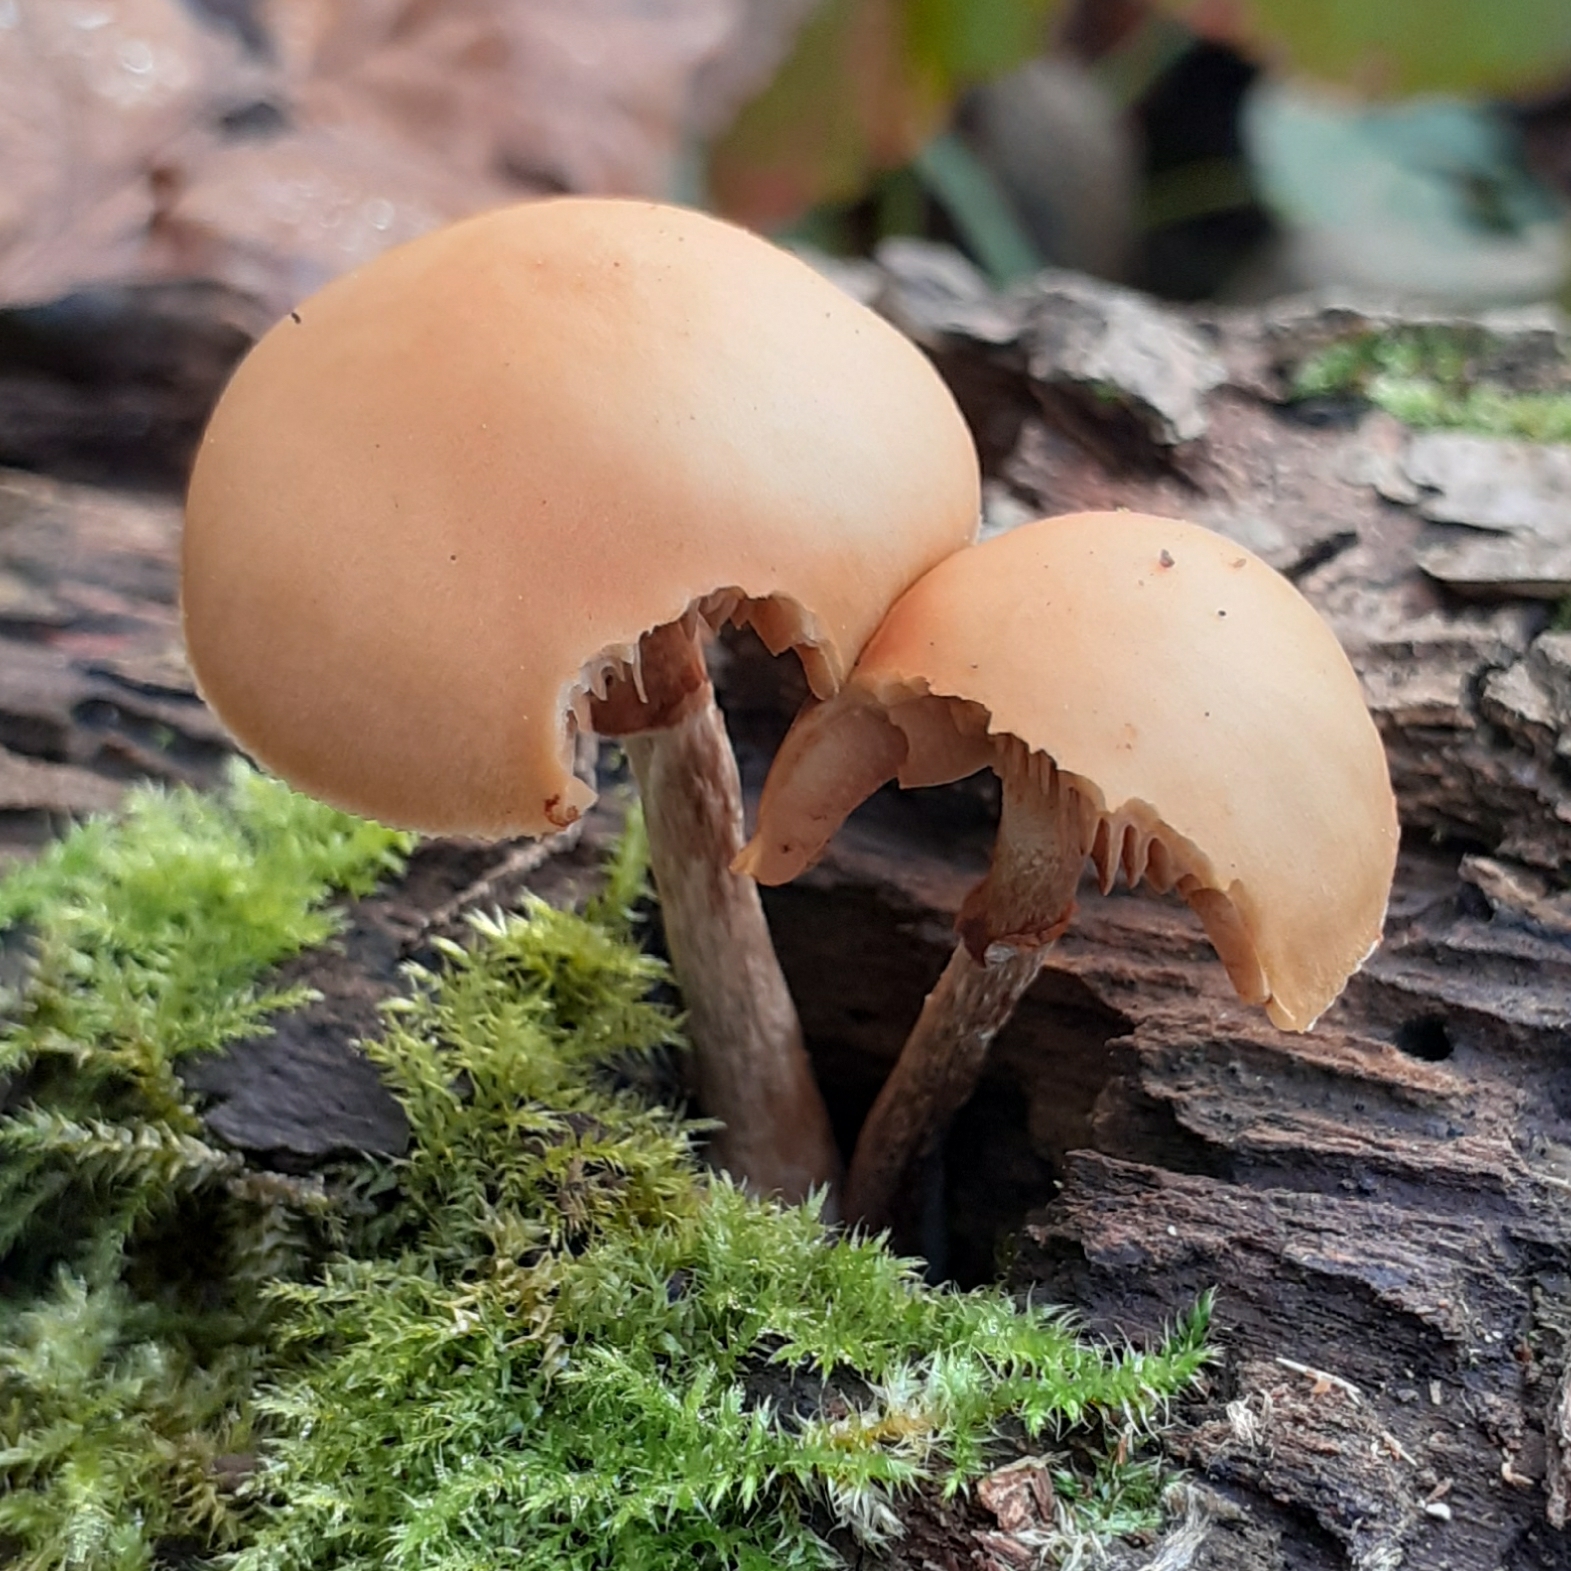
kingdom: Fungi
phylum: Basidiomycota
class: Agaricomycetes
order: Agaricales
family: Hymenogastraceae
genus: Galerina
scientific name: Galerina marginata
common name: Funeral bell
